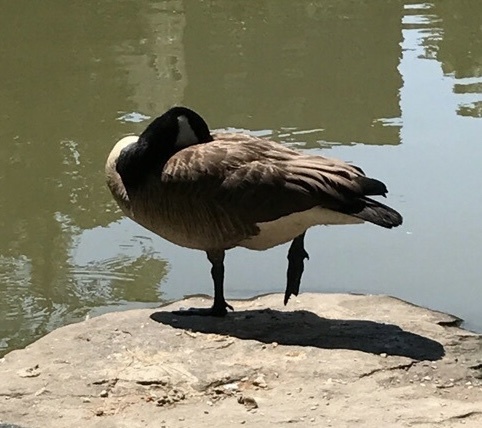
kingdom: Animalia
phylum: Chordata
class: Aves
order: Anseriformes
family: Anatidae
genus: Branta
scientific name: Branta canadensis
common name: Canada goose
